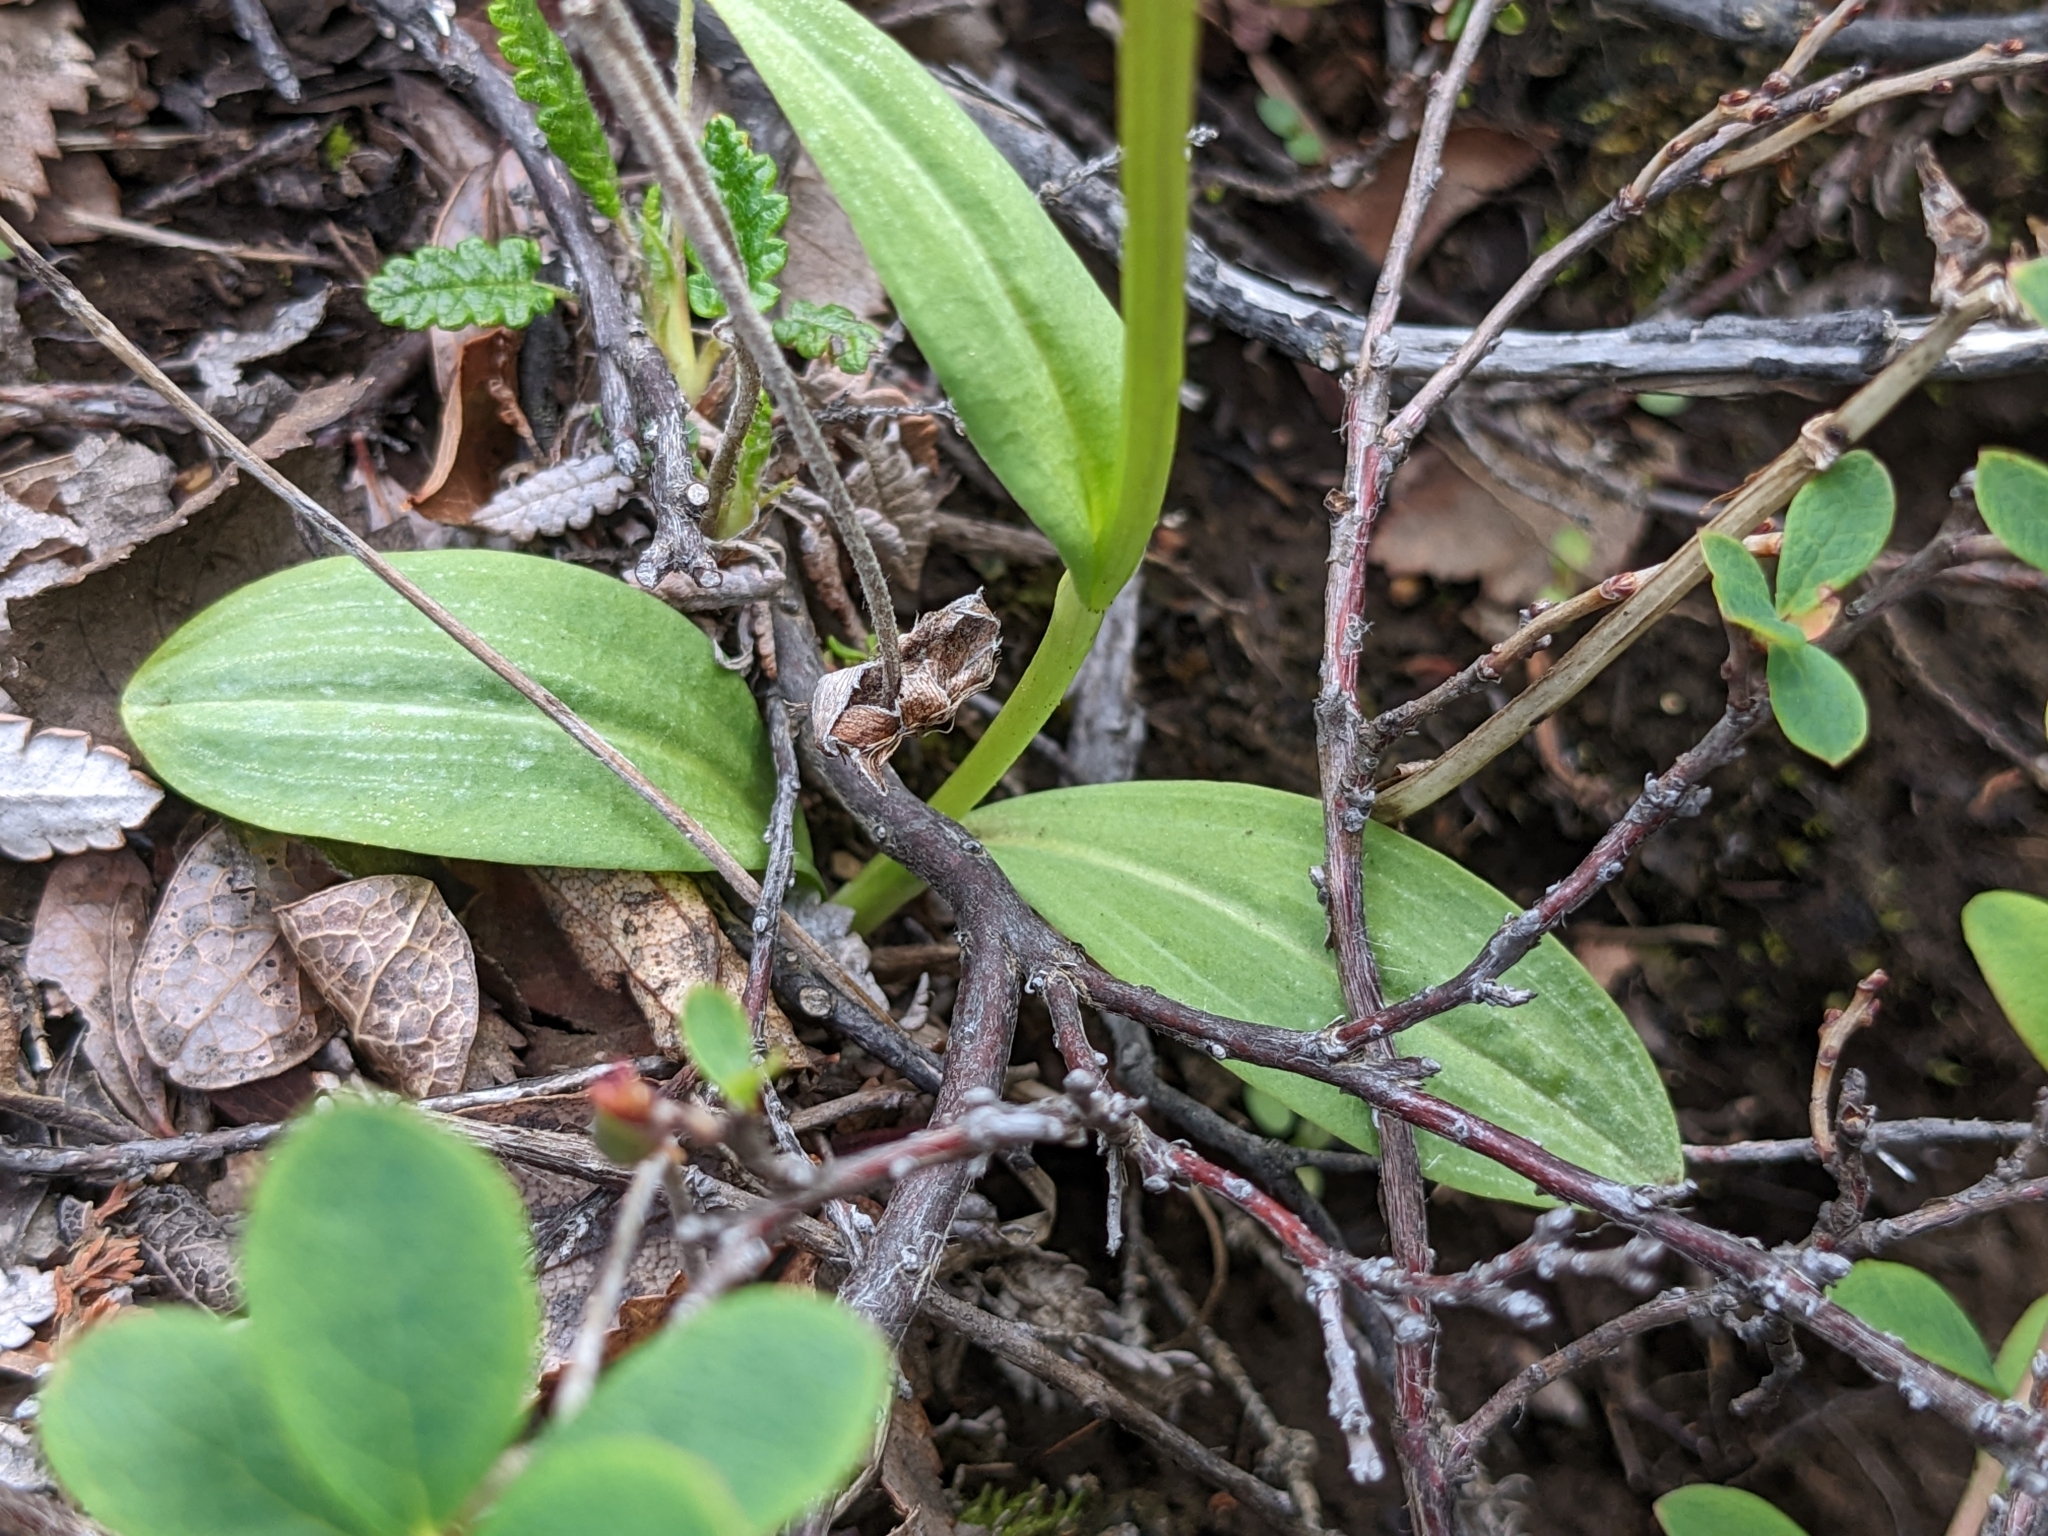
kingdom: Plantae
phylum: Tracheophyta
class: Liliopsida
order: Asparagales
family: Orchidaceae
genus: Dactylorhiza
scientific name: Dactylorhiza viridis
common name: Longbract frog orchid
